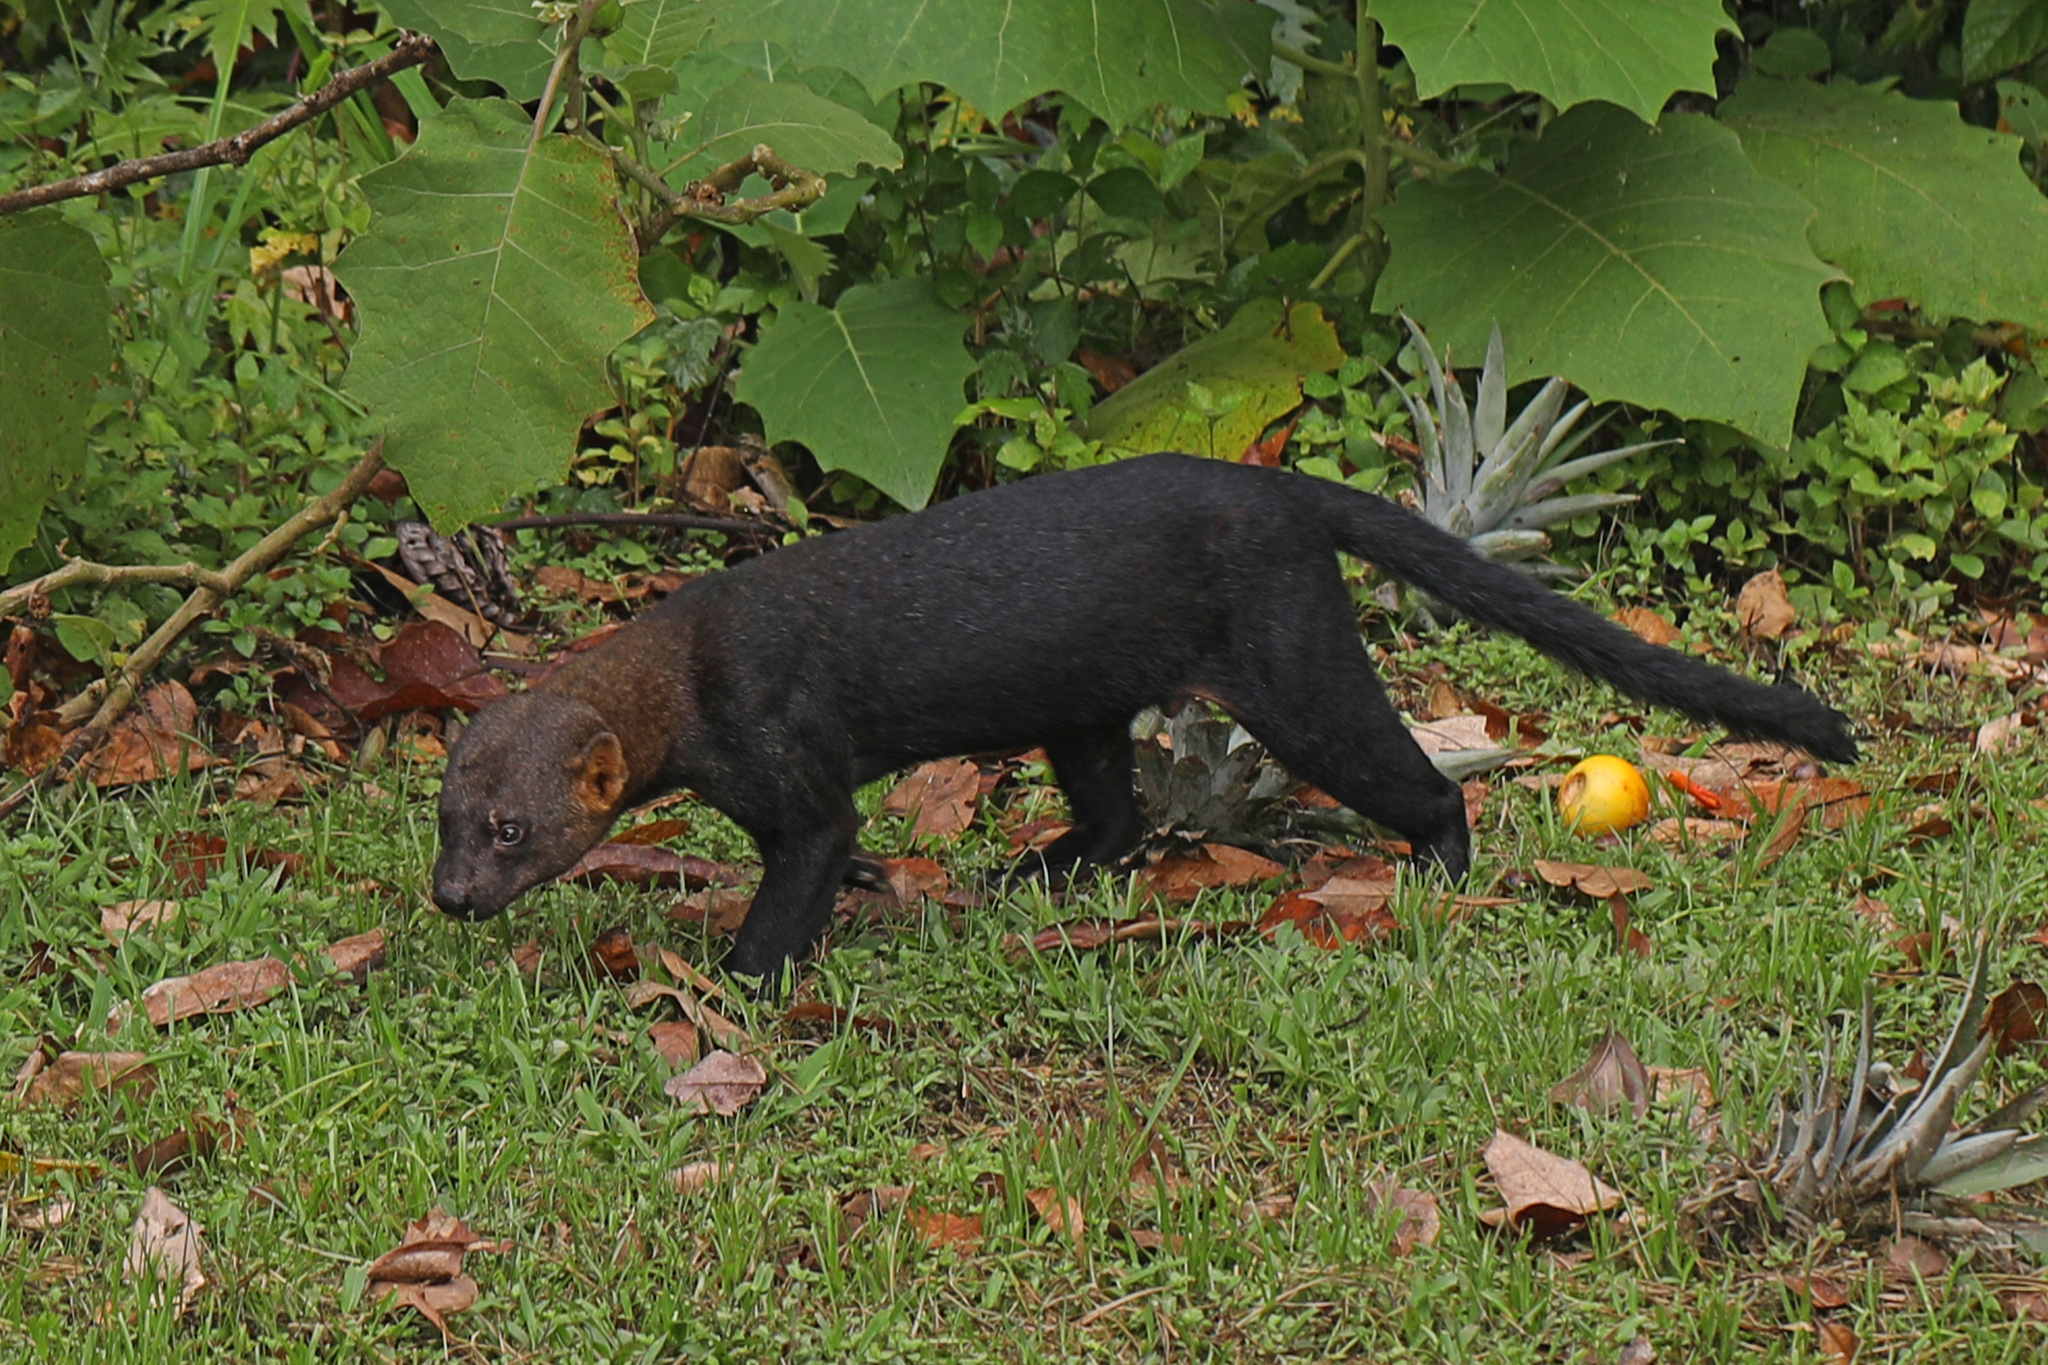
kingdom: Animalia
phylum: Chordata
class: Mammalia
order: Carnivora
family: Mustelidae
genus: Eira
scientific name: Eira barbara
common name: Tayra
